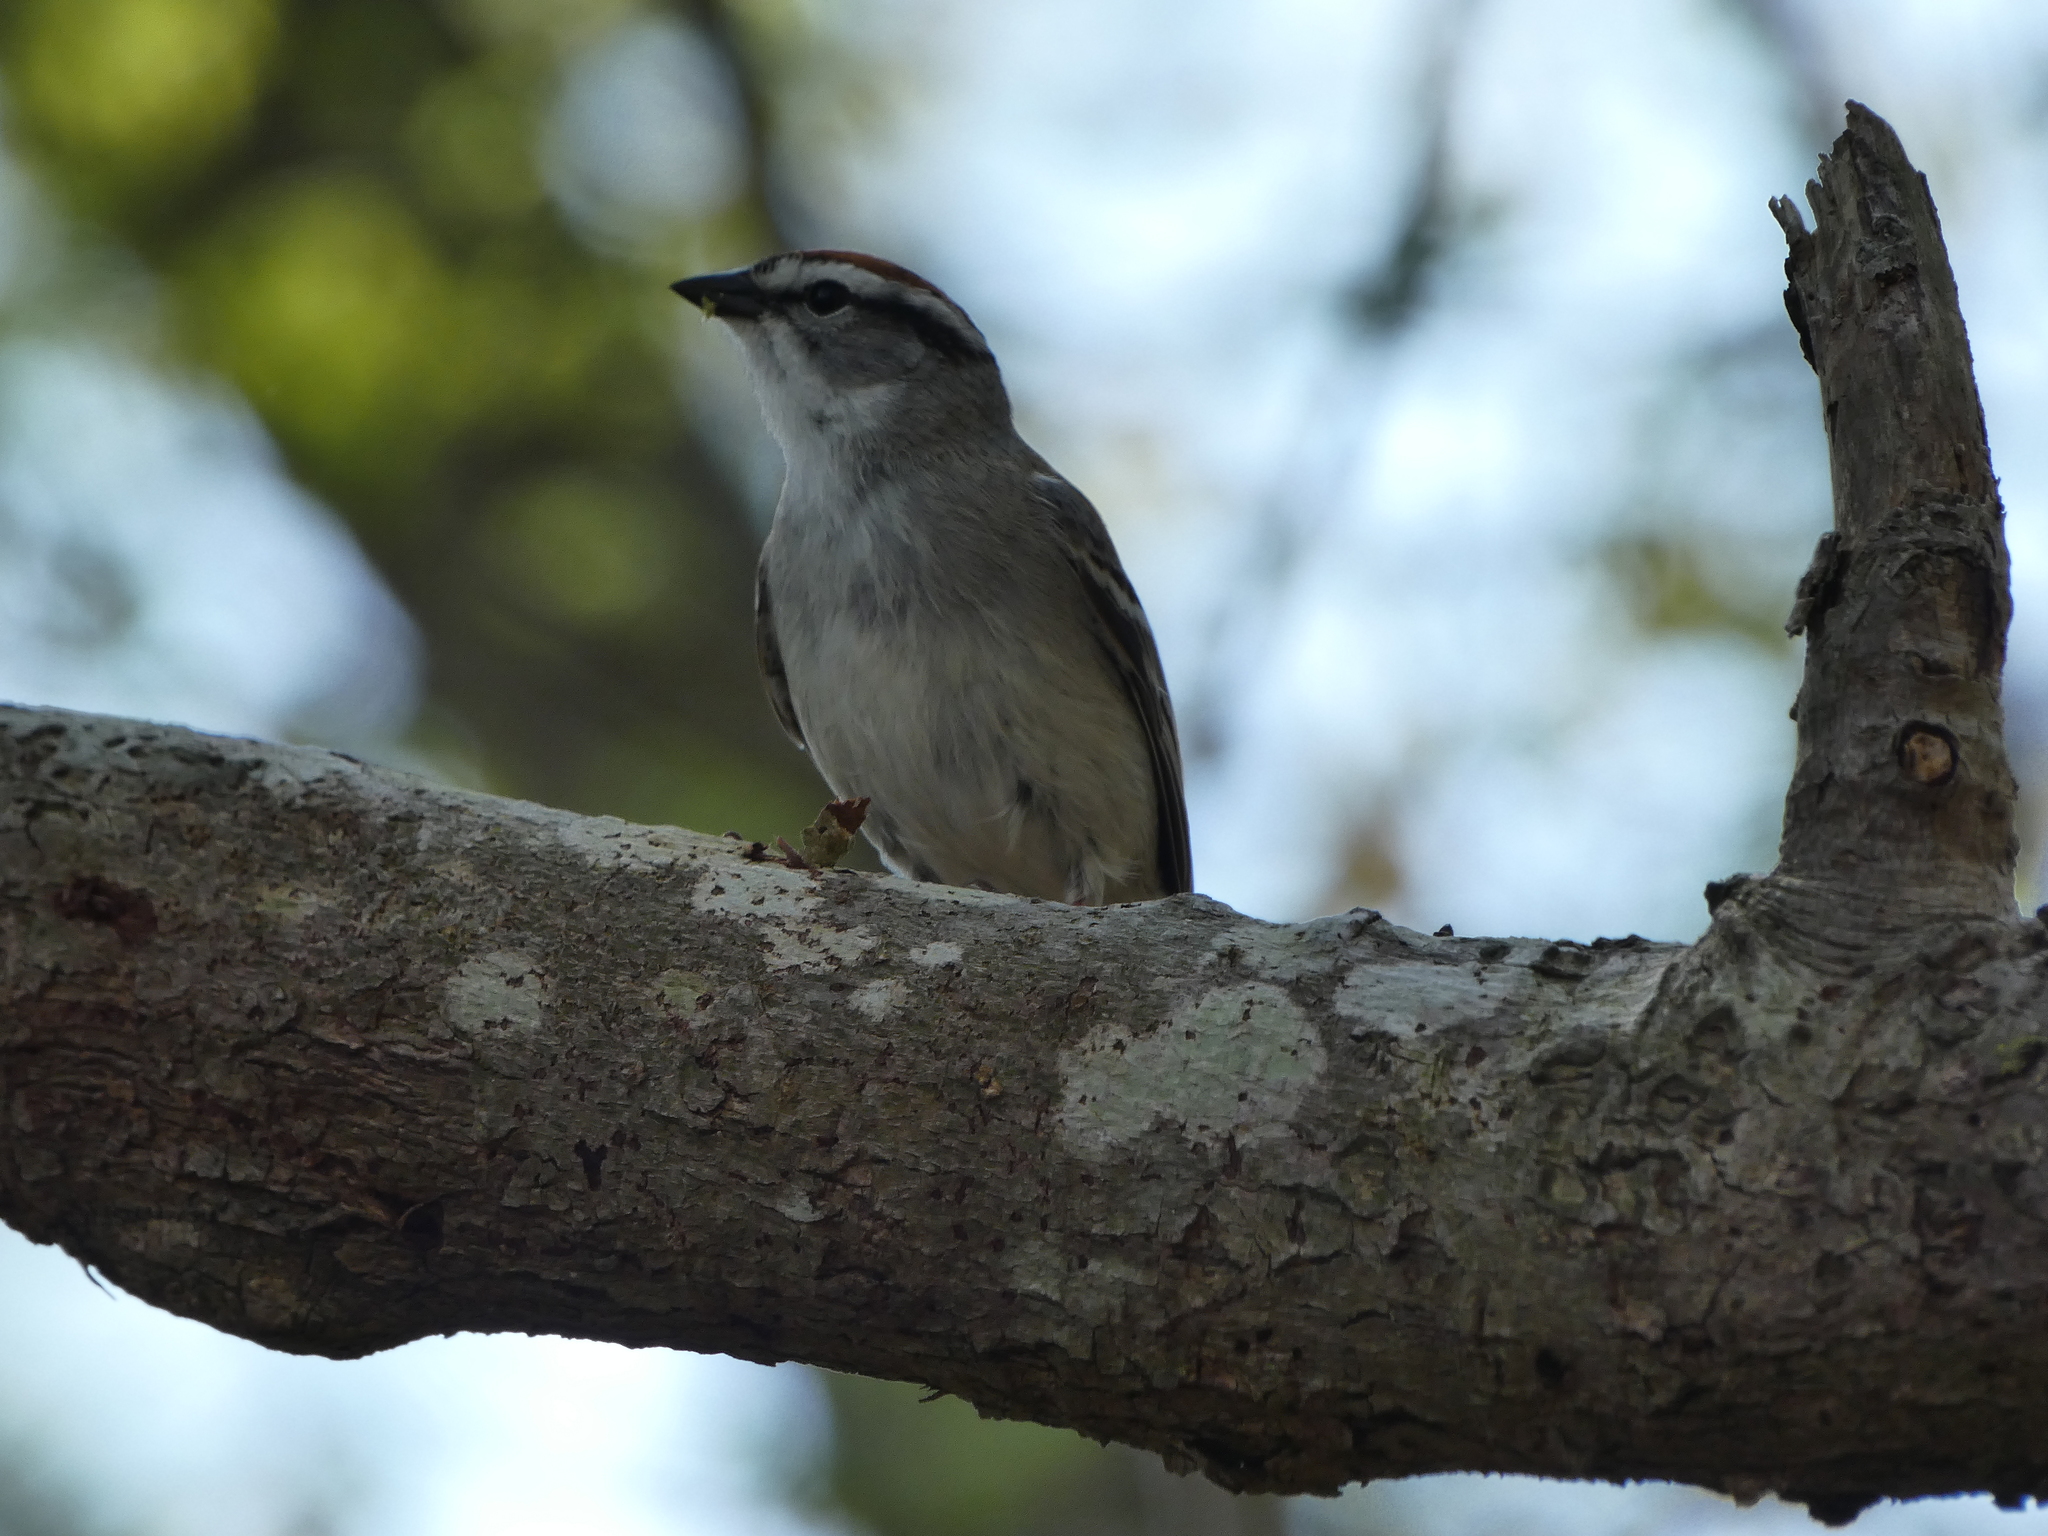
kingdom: Animalia
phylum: Chordata
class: Aves
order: Passeriformes
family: Passerellidae
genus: Spizella
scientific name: Spizella passerina
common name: Chipping sparrow
